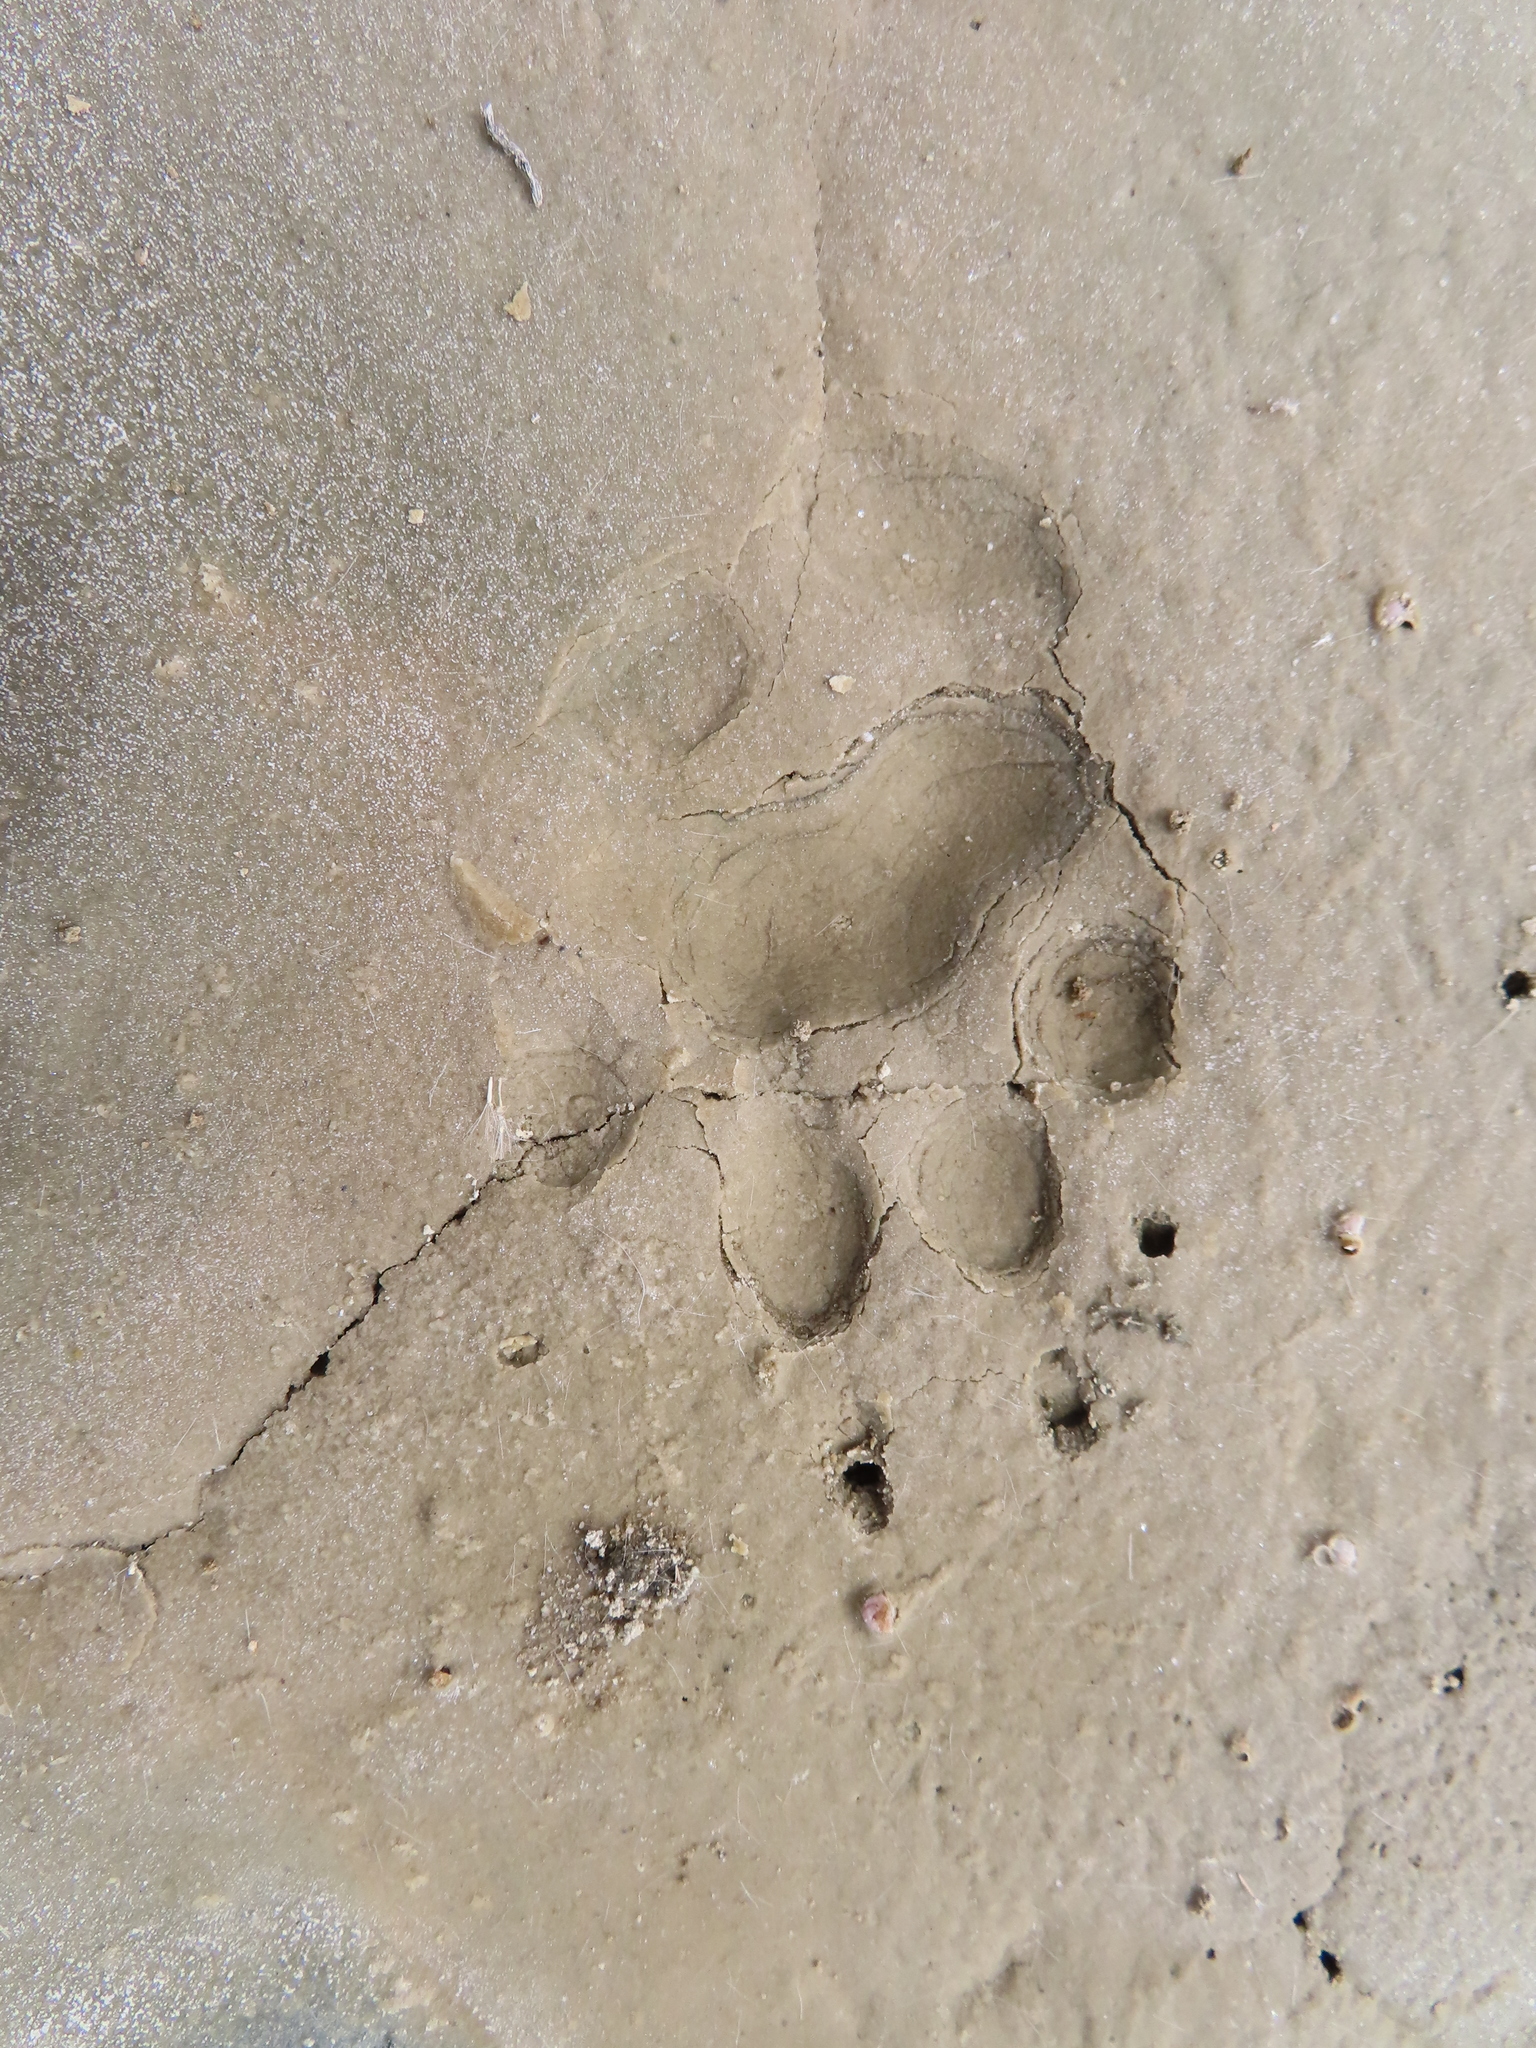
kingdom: Animalia
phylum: Chordata
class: Mammalia
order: Rodentia
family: Hystricidae
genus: Hystrix
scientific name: Hystrix africaeaustralis
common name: Cape porcupine
